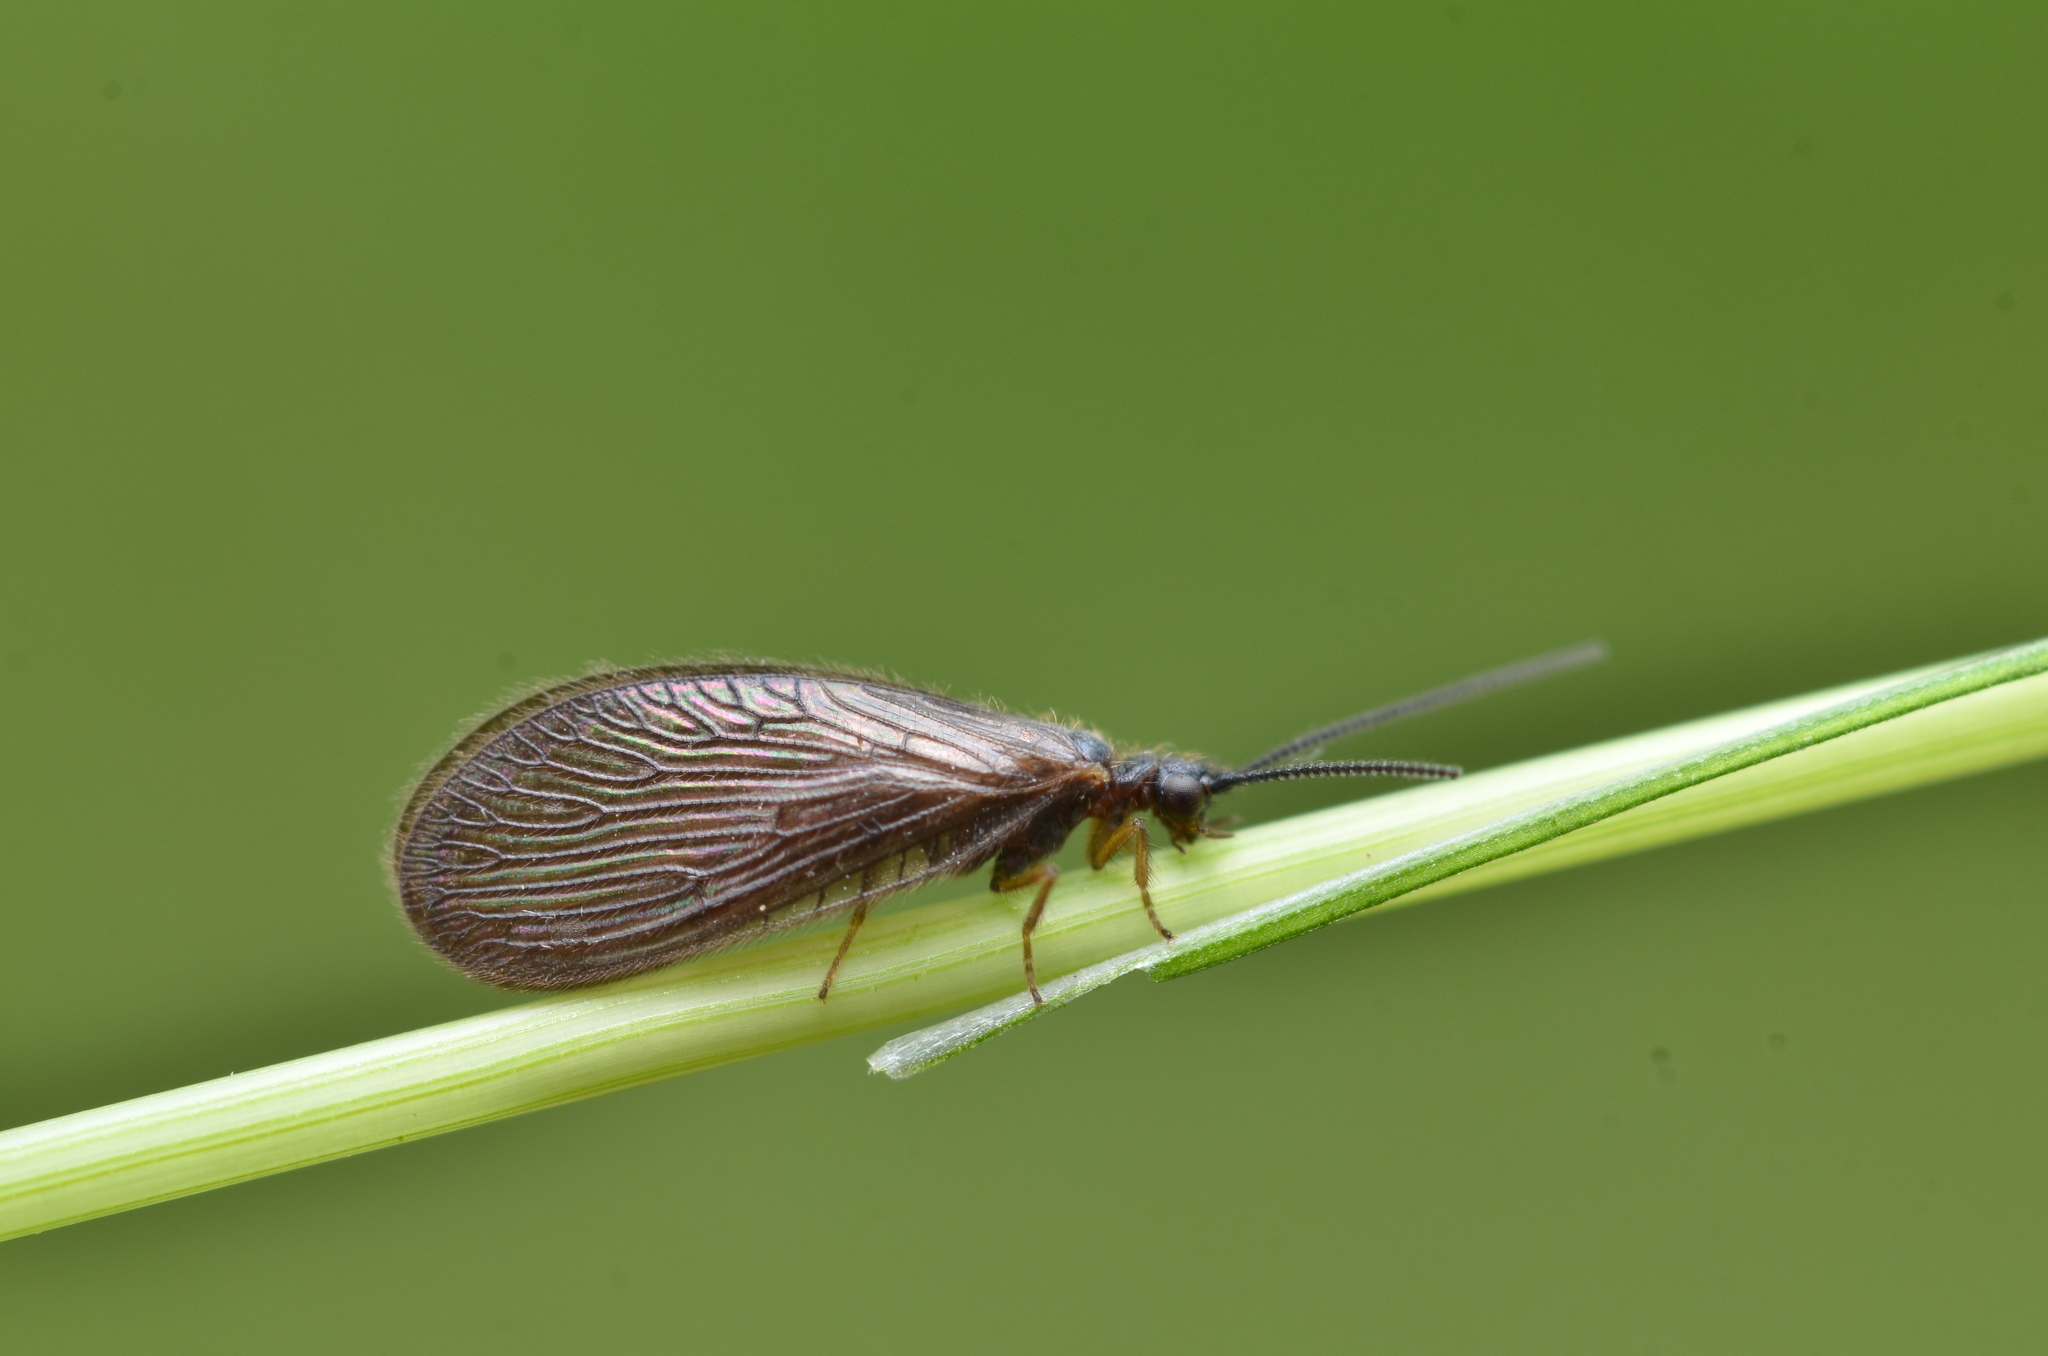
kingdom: Animalia
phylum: Arthropoda
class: Insecta
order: Neuroptera
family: Sisyridae
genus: Sisyra
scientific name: Sisyra nigra
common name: Black spongillafly
